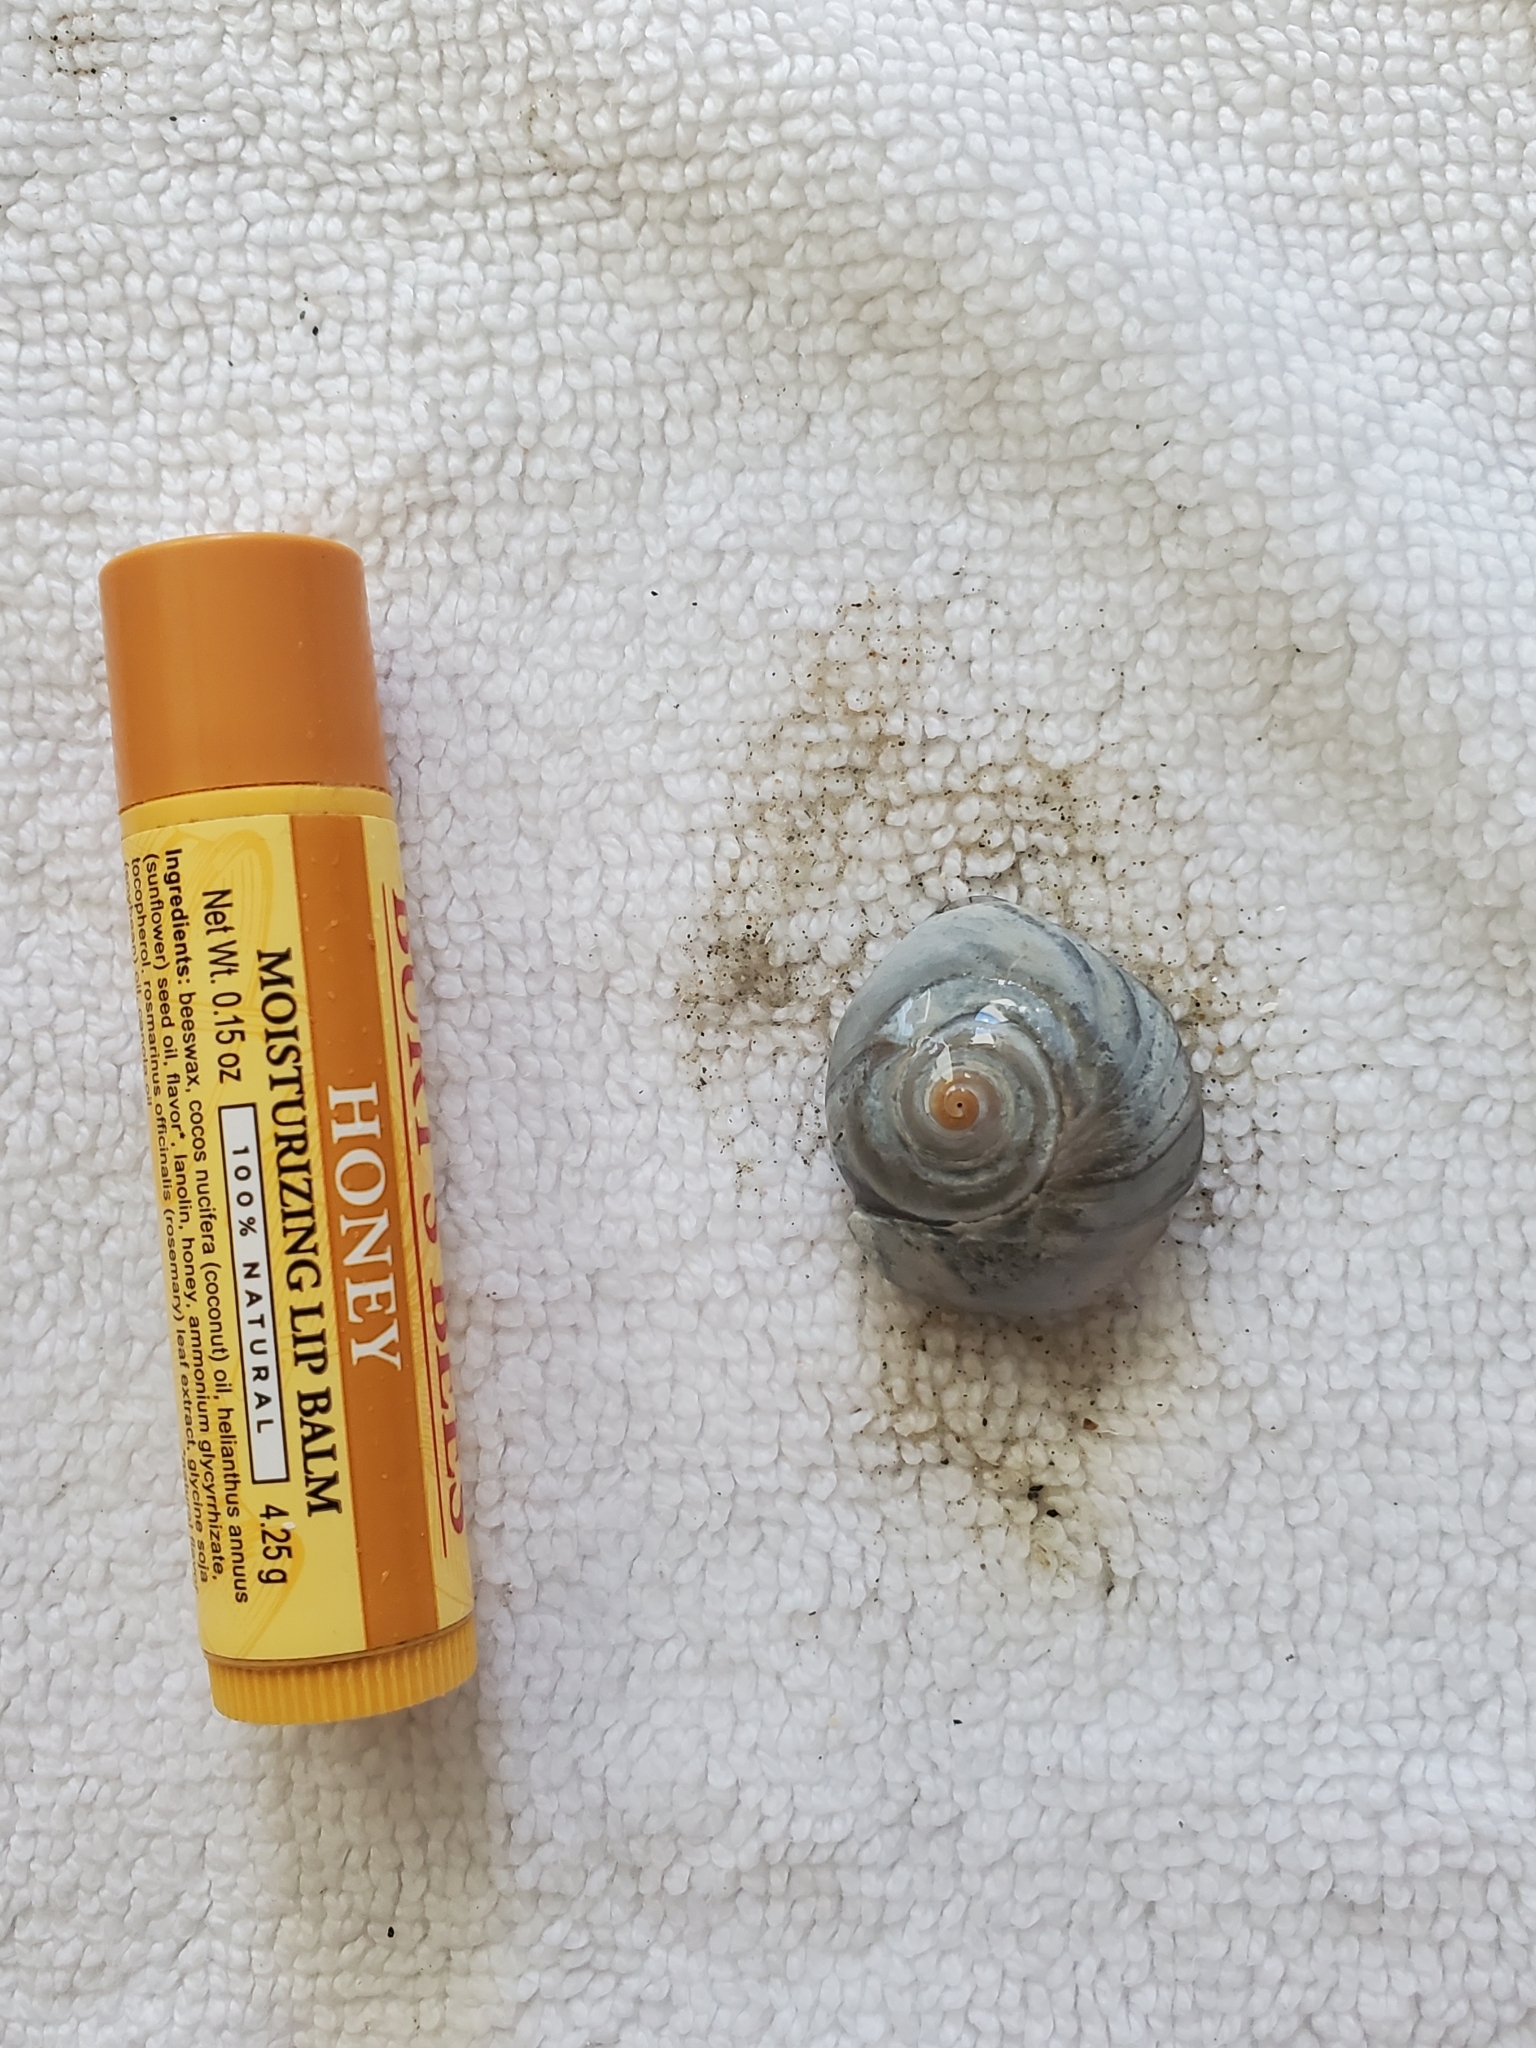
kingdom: Animalia
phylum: Mollusca
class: Gastropoda
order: Littorinimorpha
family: Naticidae
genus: Neverita
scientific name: Neverita duplicata
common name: Lobed moonsnail
